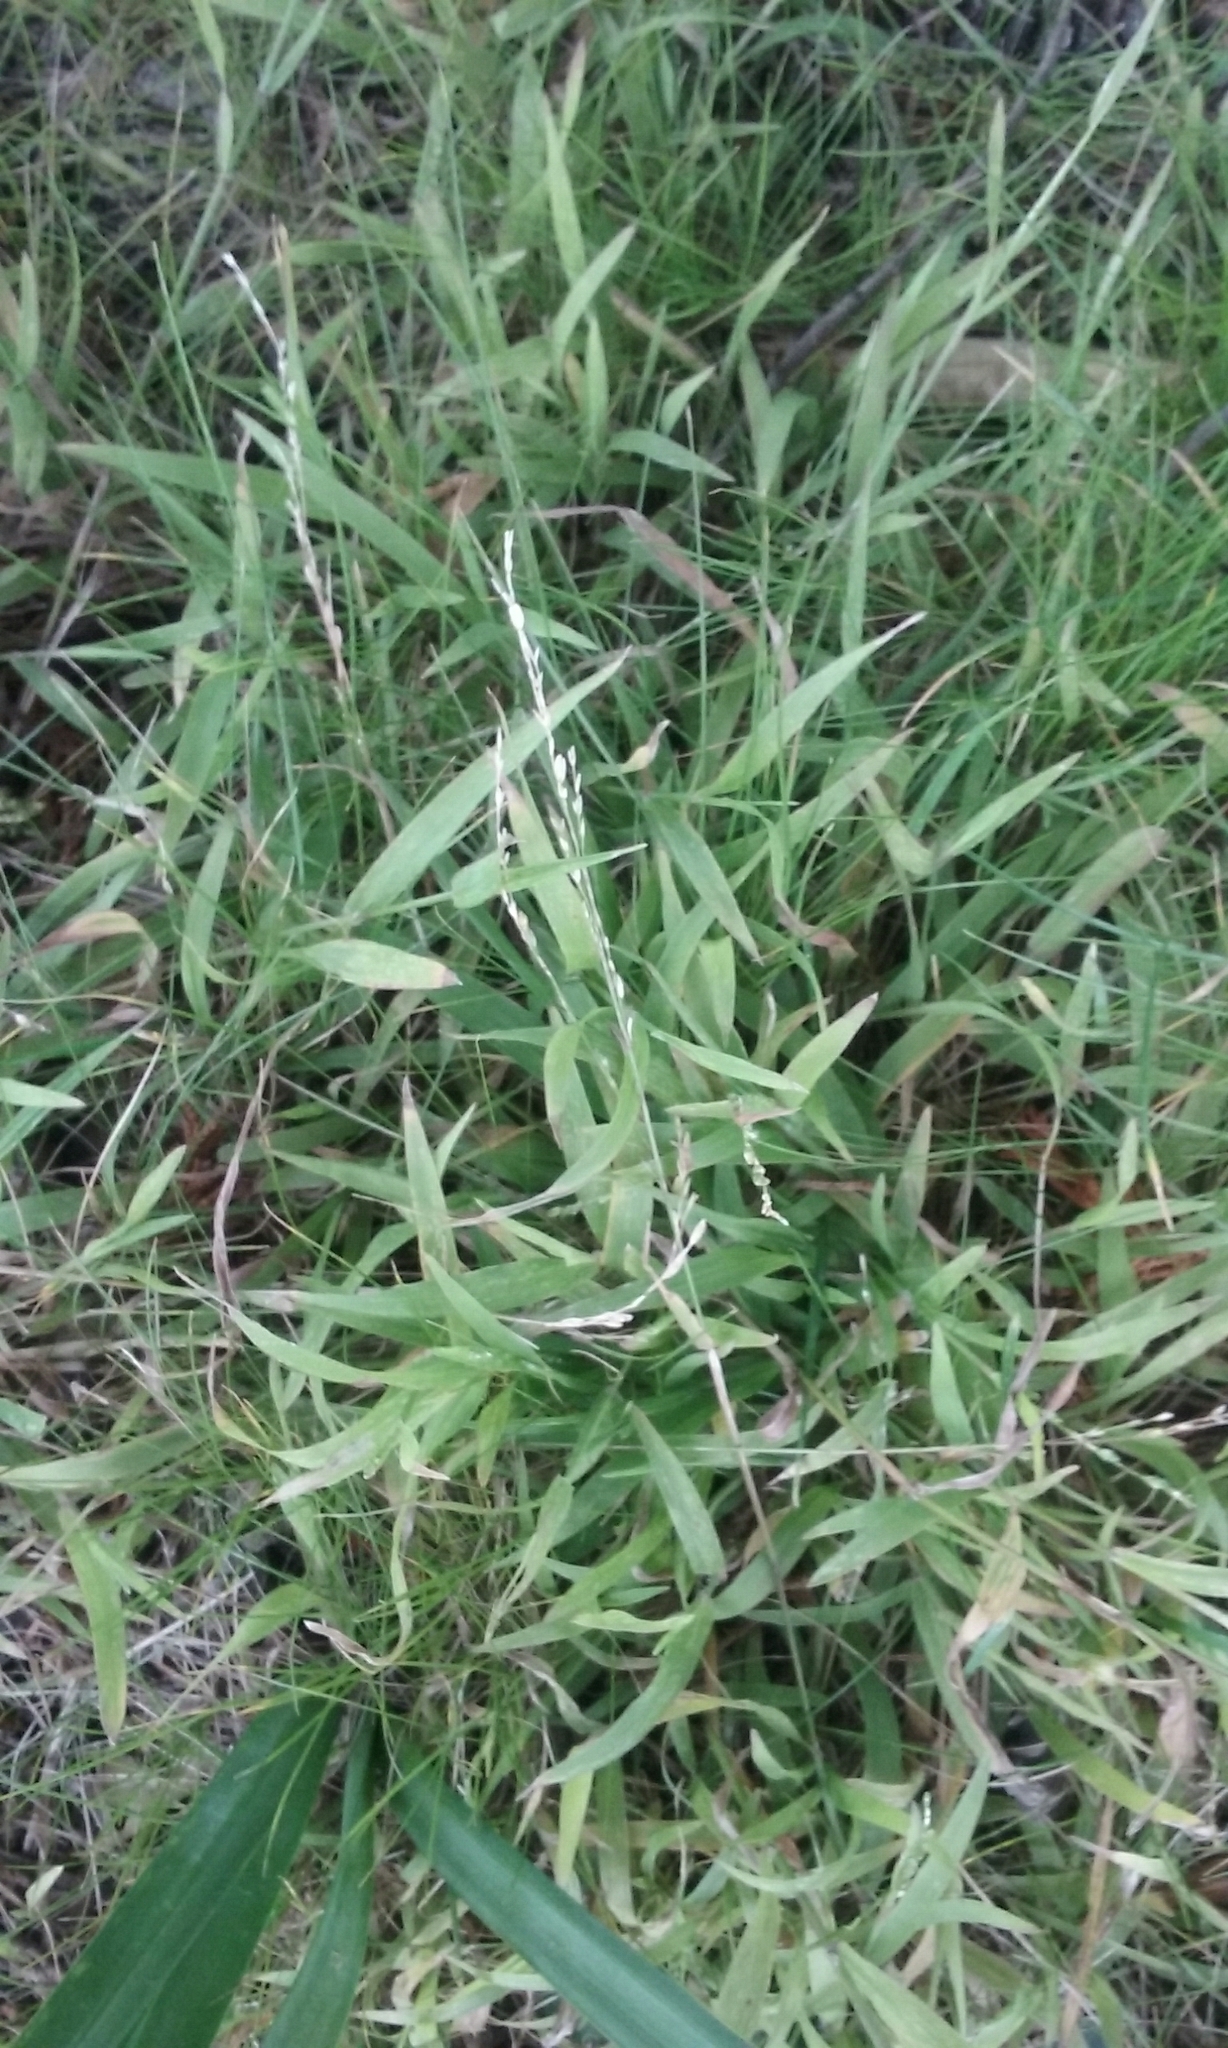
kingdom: Plantae
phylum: Tracheophyta
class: Liliopsida
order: Poales
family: Poaceae
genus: Ehrharta
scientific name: Ehrharta erecta
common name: Panic veldtgrass
